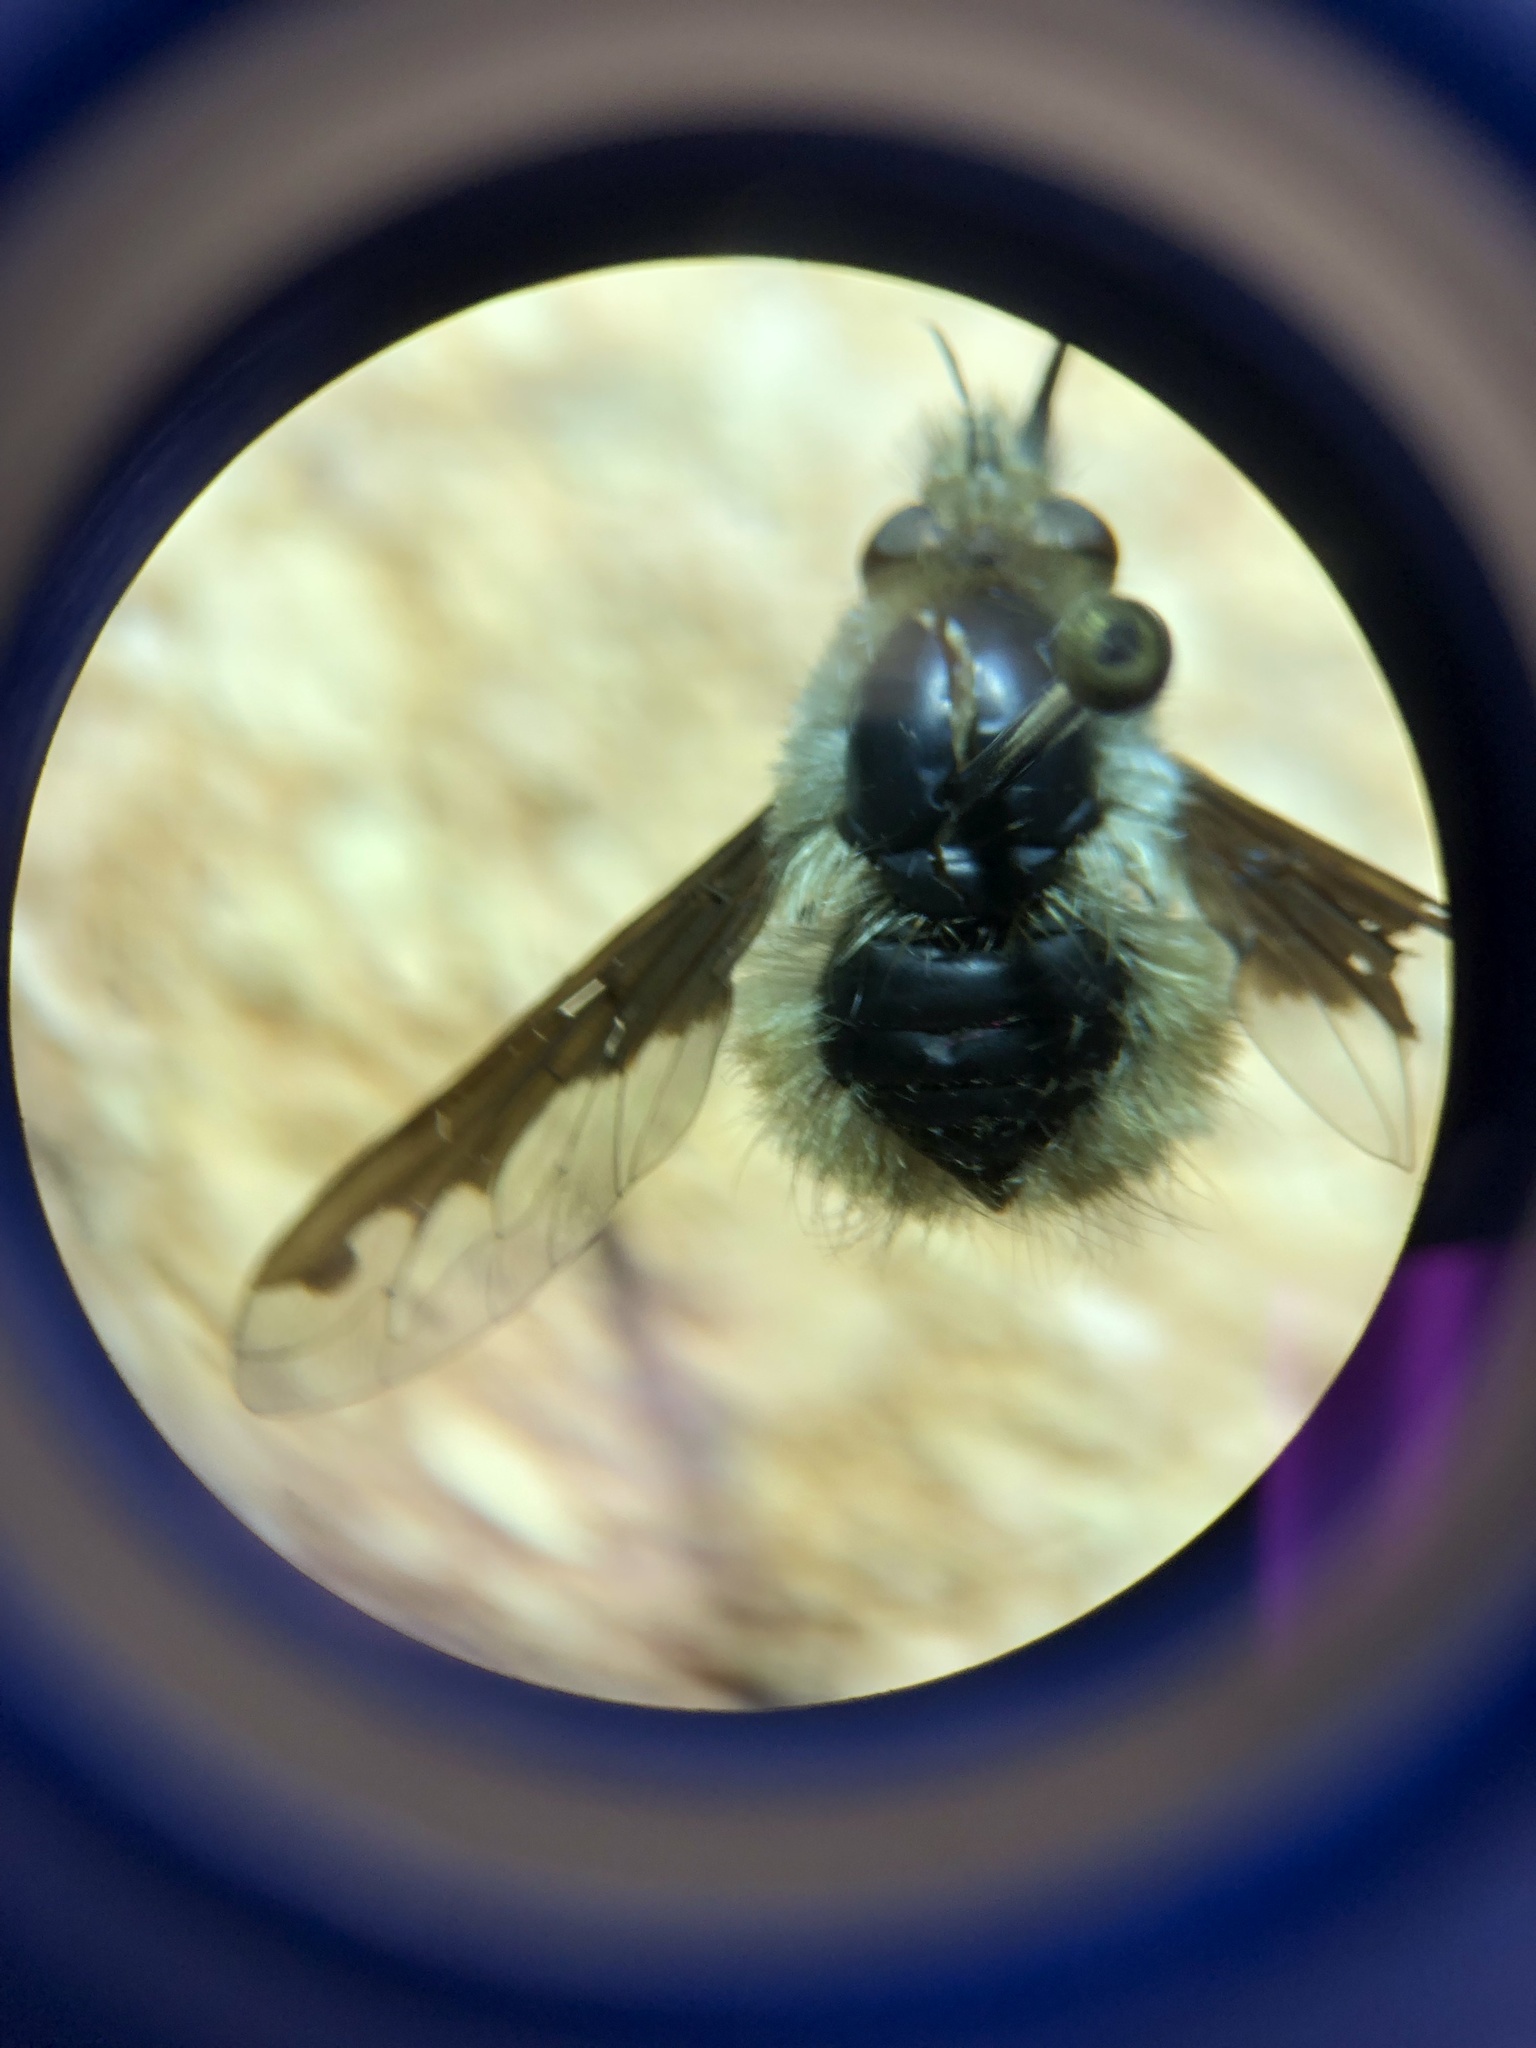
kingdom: Animalia
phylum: Arthropoda
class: Insecta
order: Diptera
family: Bombyliidae
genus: Bombylius
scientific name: Bombylius major
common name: Bee fly
